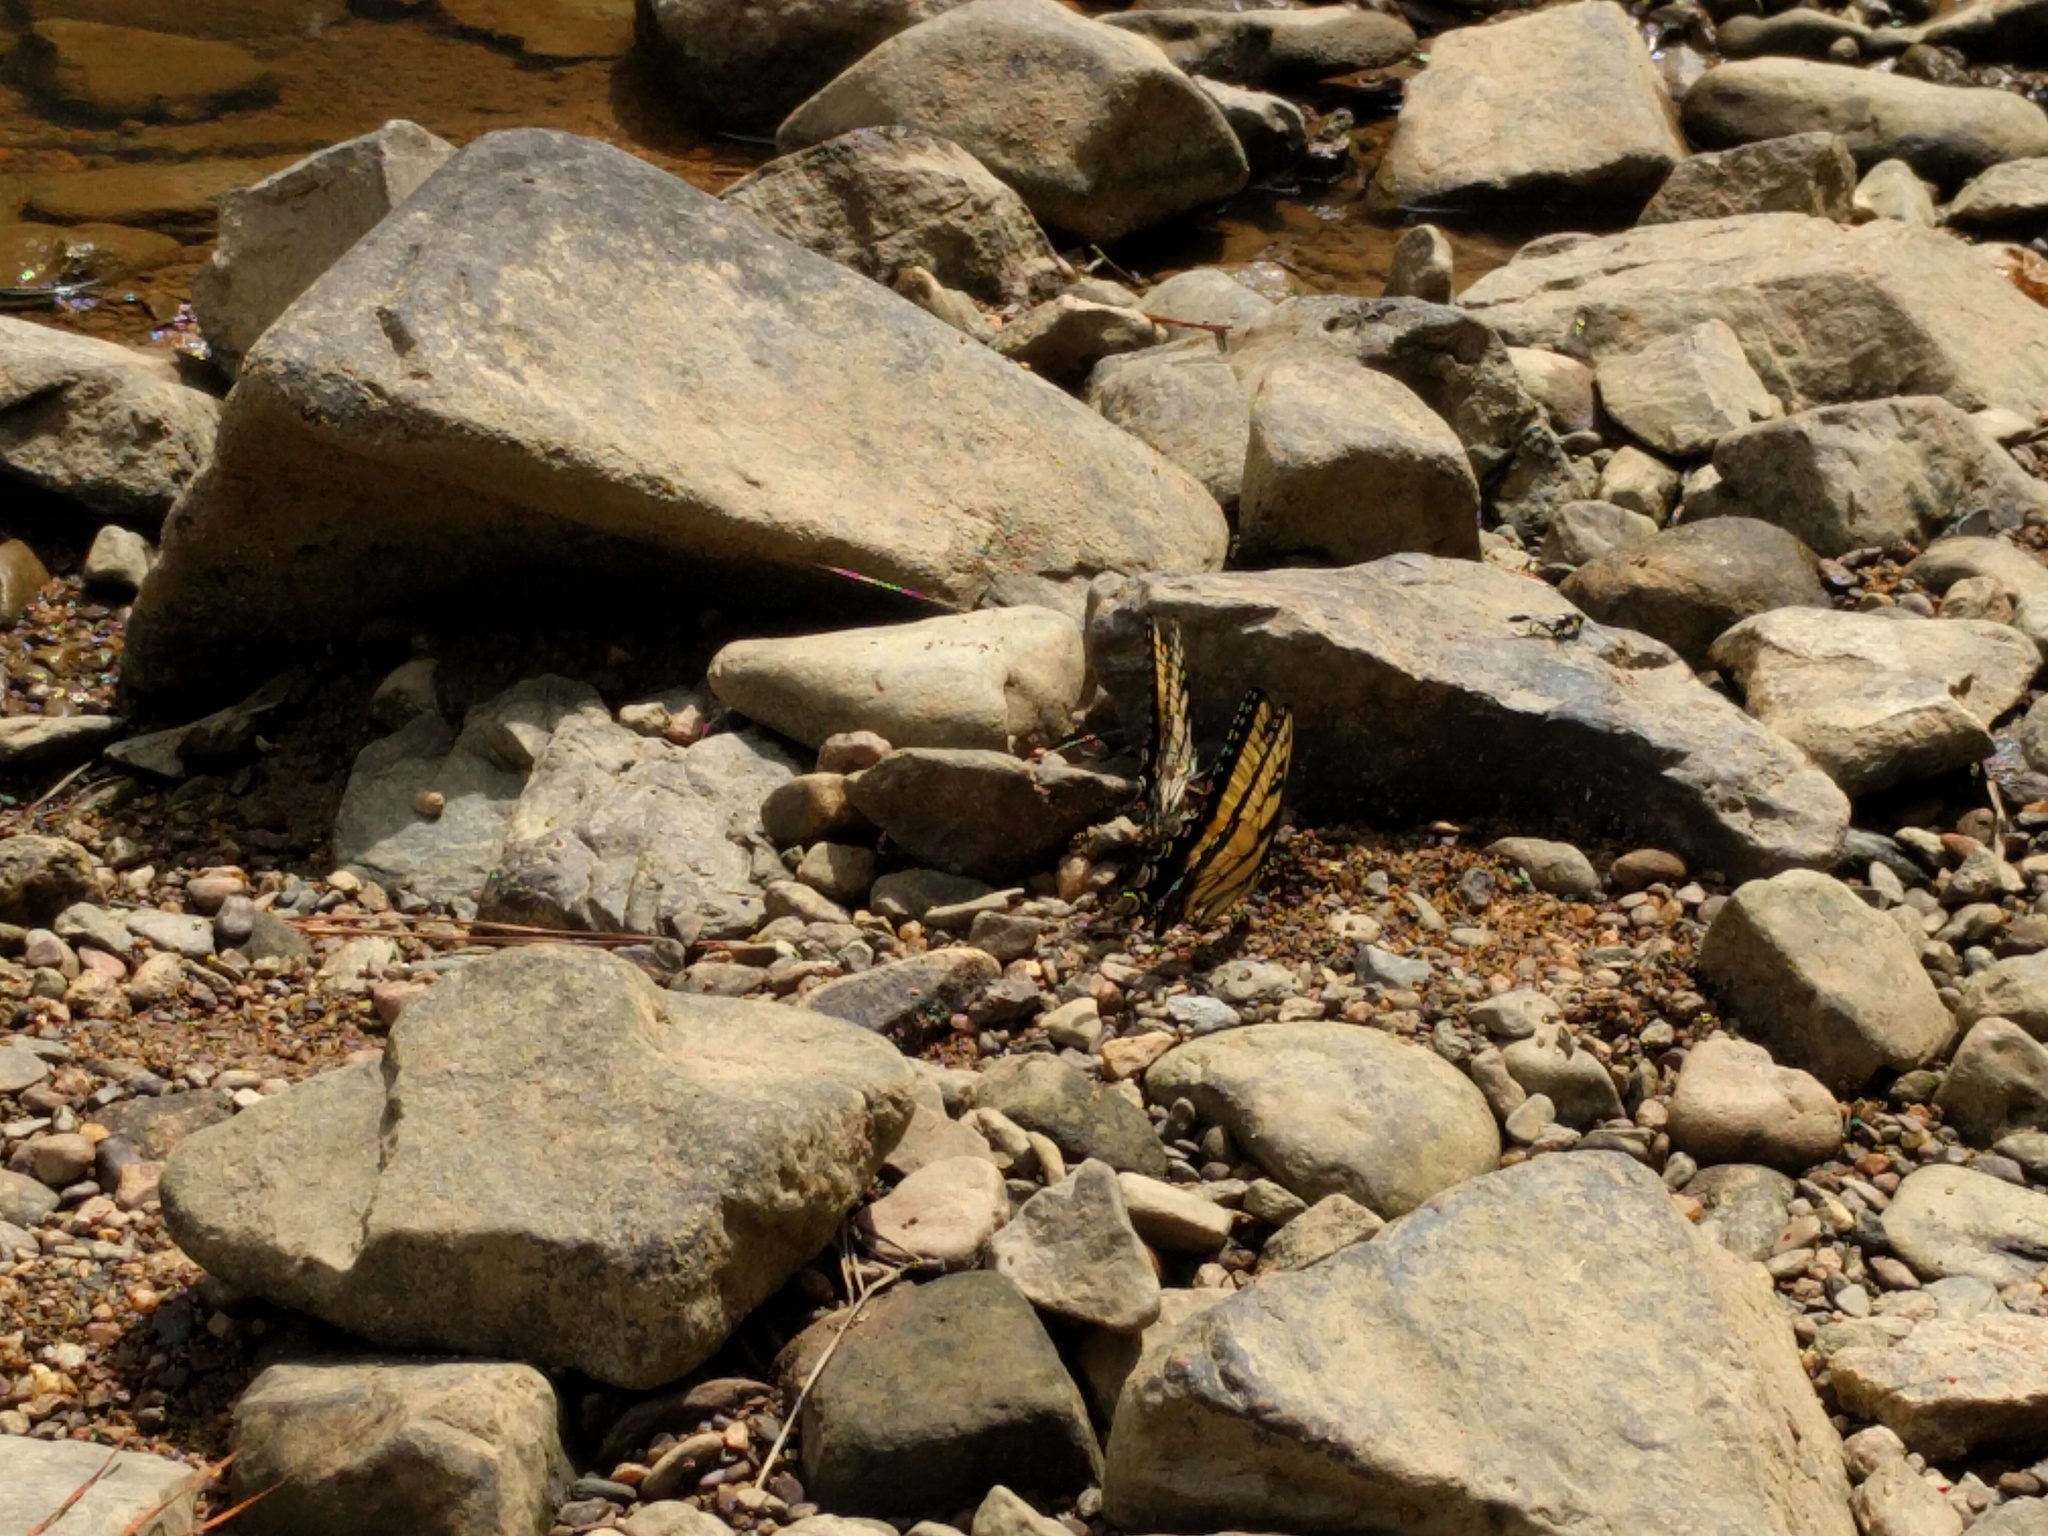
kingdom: Animalia
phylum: Arthropoda
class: Insecta
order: Lepidoptera
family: Papilionidae
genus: Papilio
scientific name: Papilio glaucus
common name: Tiger swallowtail
